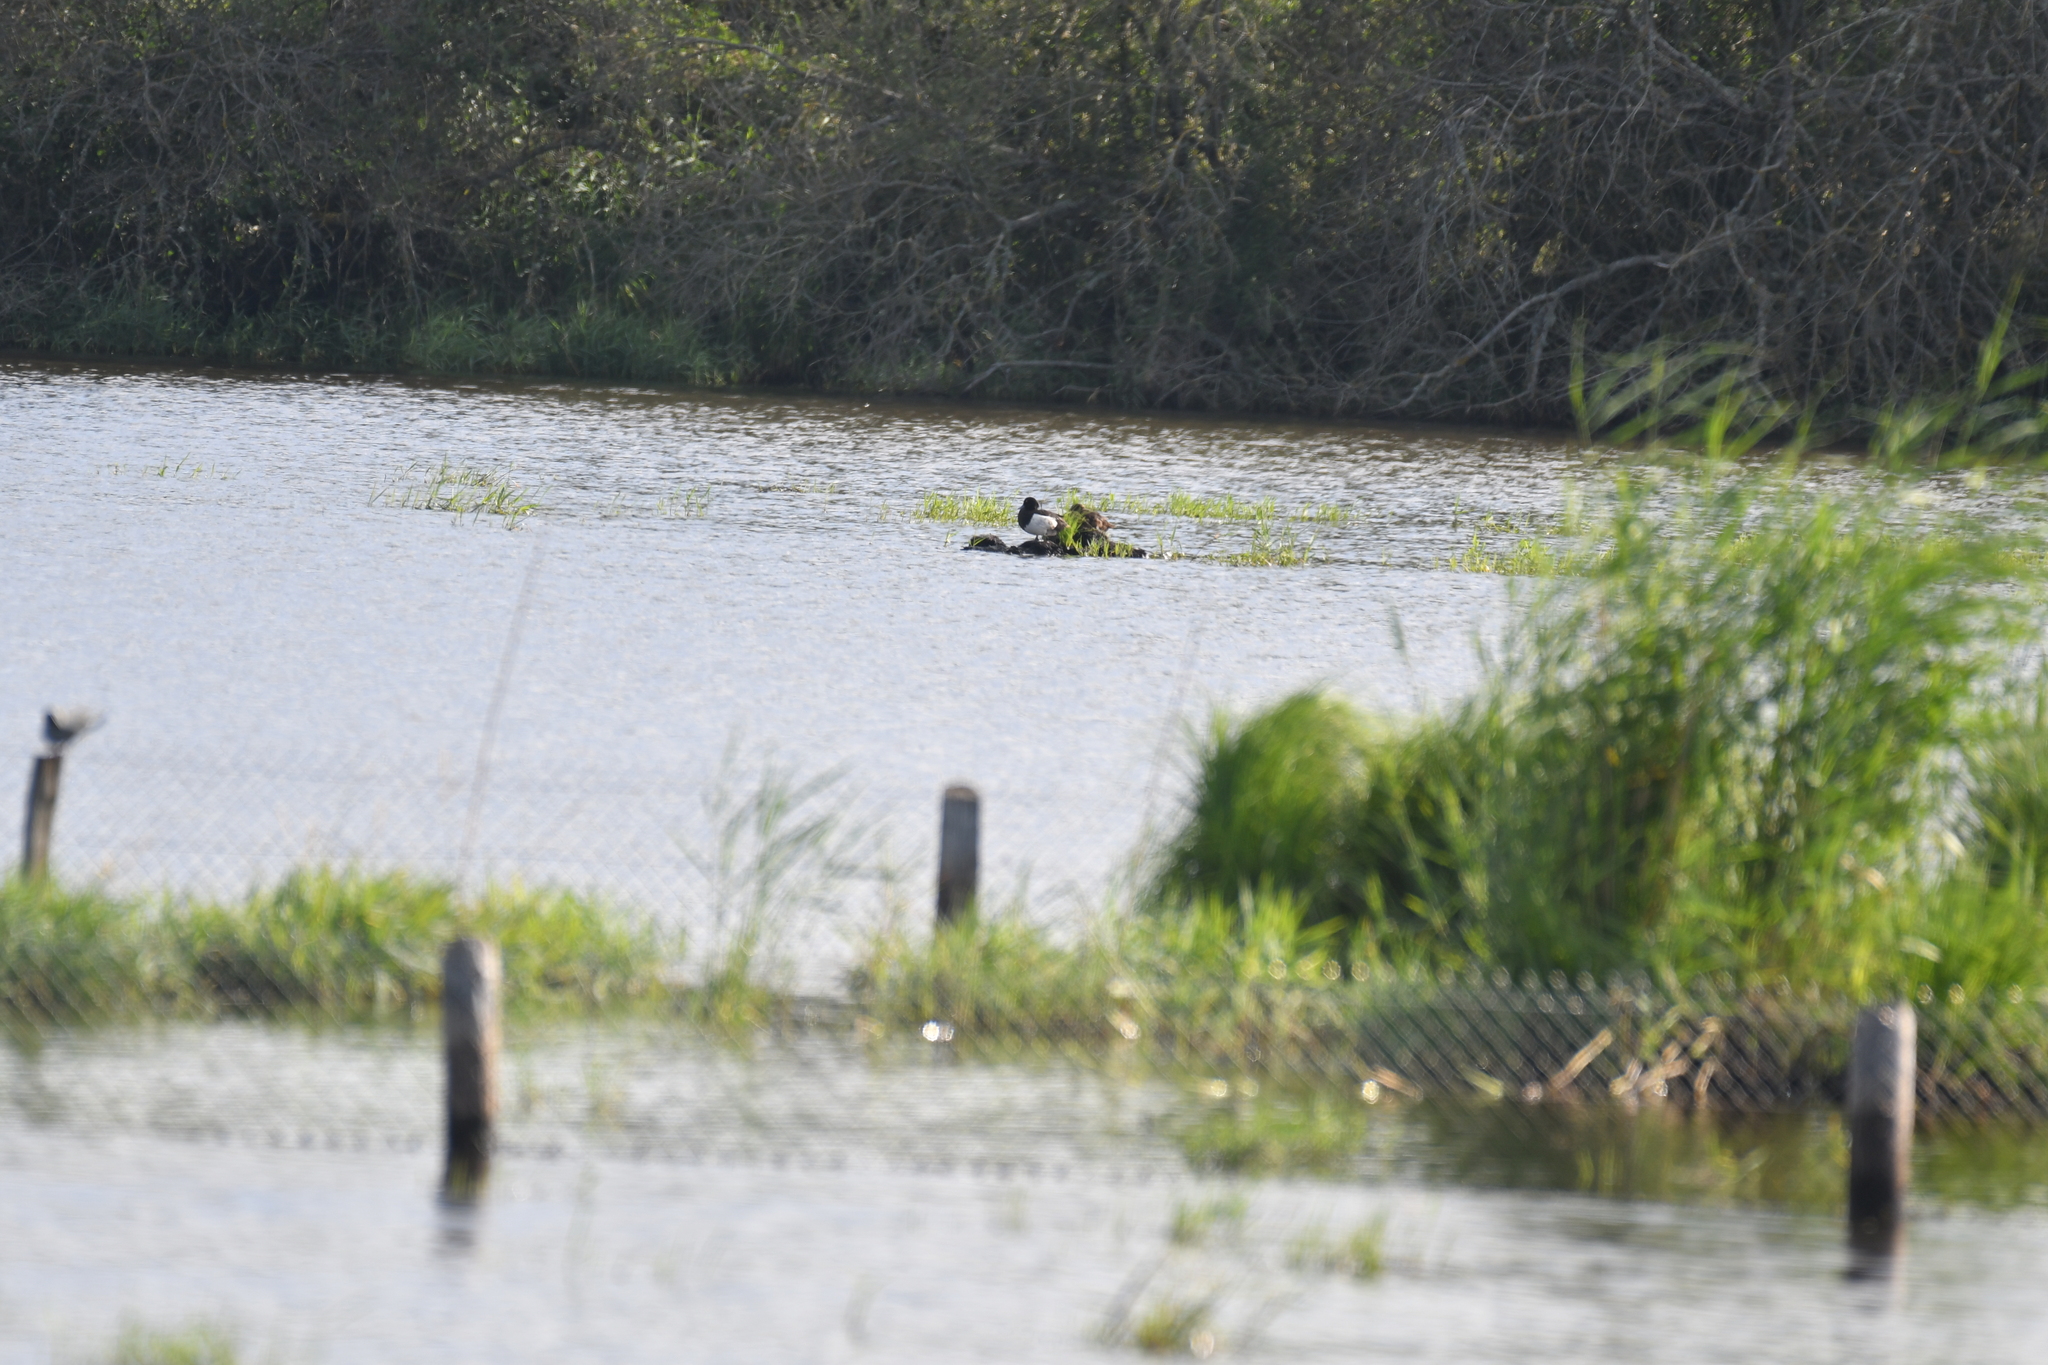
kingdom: Animalia
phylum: Chordata
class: Aves
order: Anseriformes
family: Anatidae
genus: Aythya
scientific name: Aythya fuligula
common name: Tufted duck
